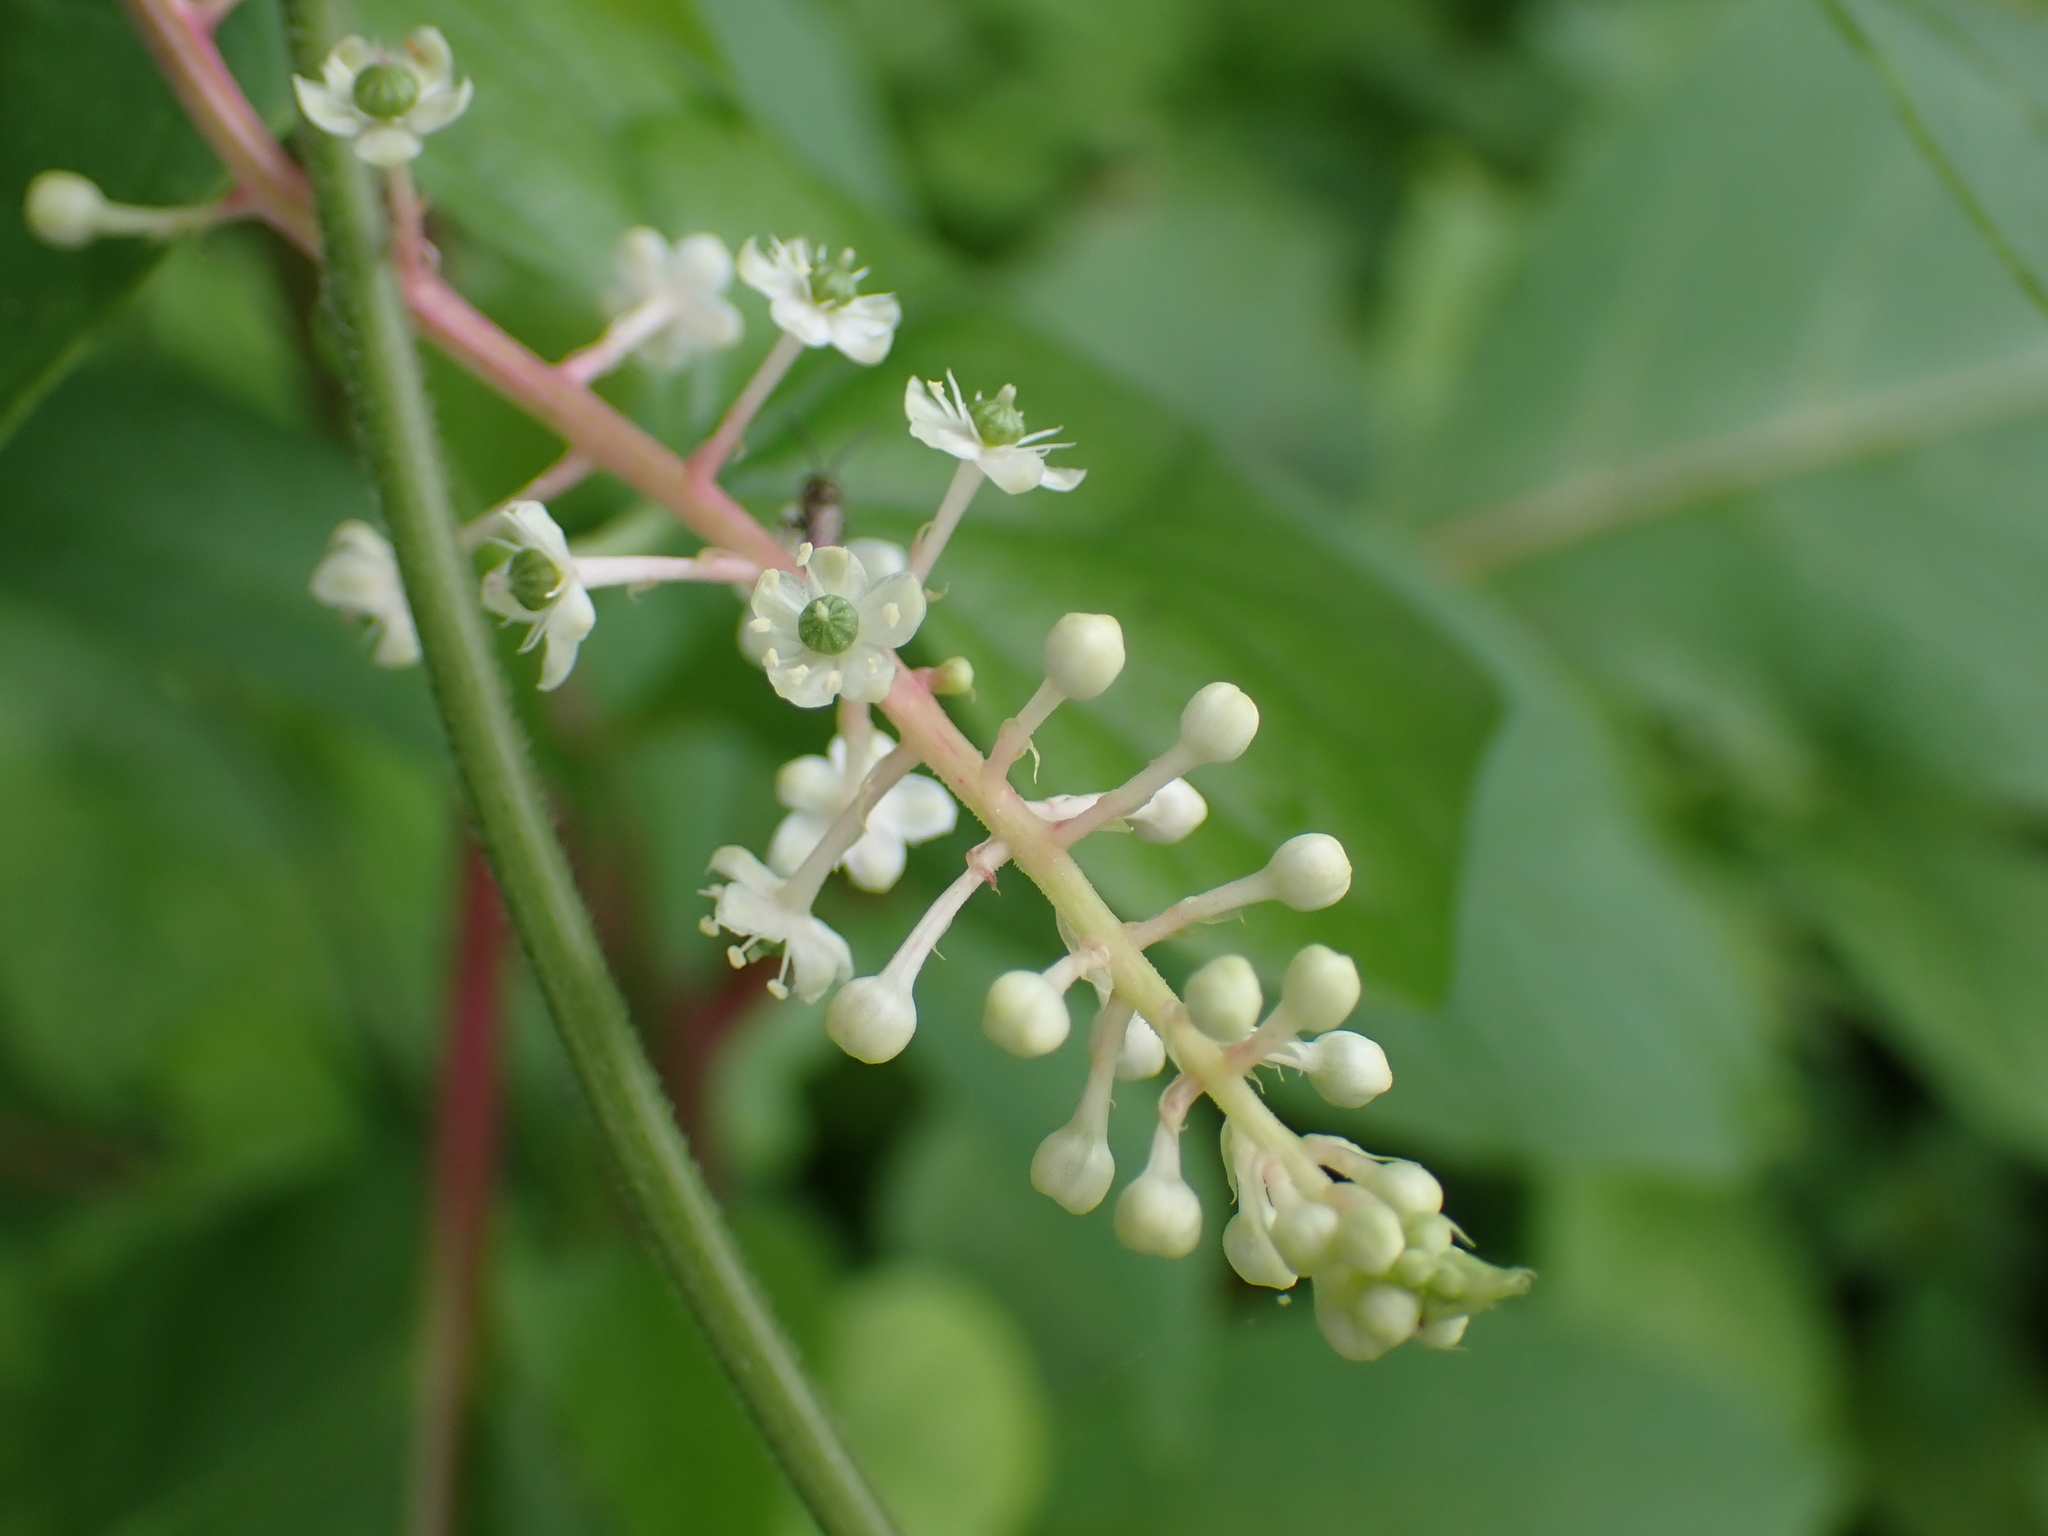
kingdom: Plantae
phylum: Tracheophyta
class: Magnoliopsida
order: Caryophyllales
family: Phytolaccaceae
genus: Phytolacca
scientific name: Phytolacca americana
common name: American pokeweed
